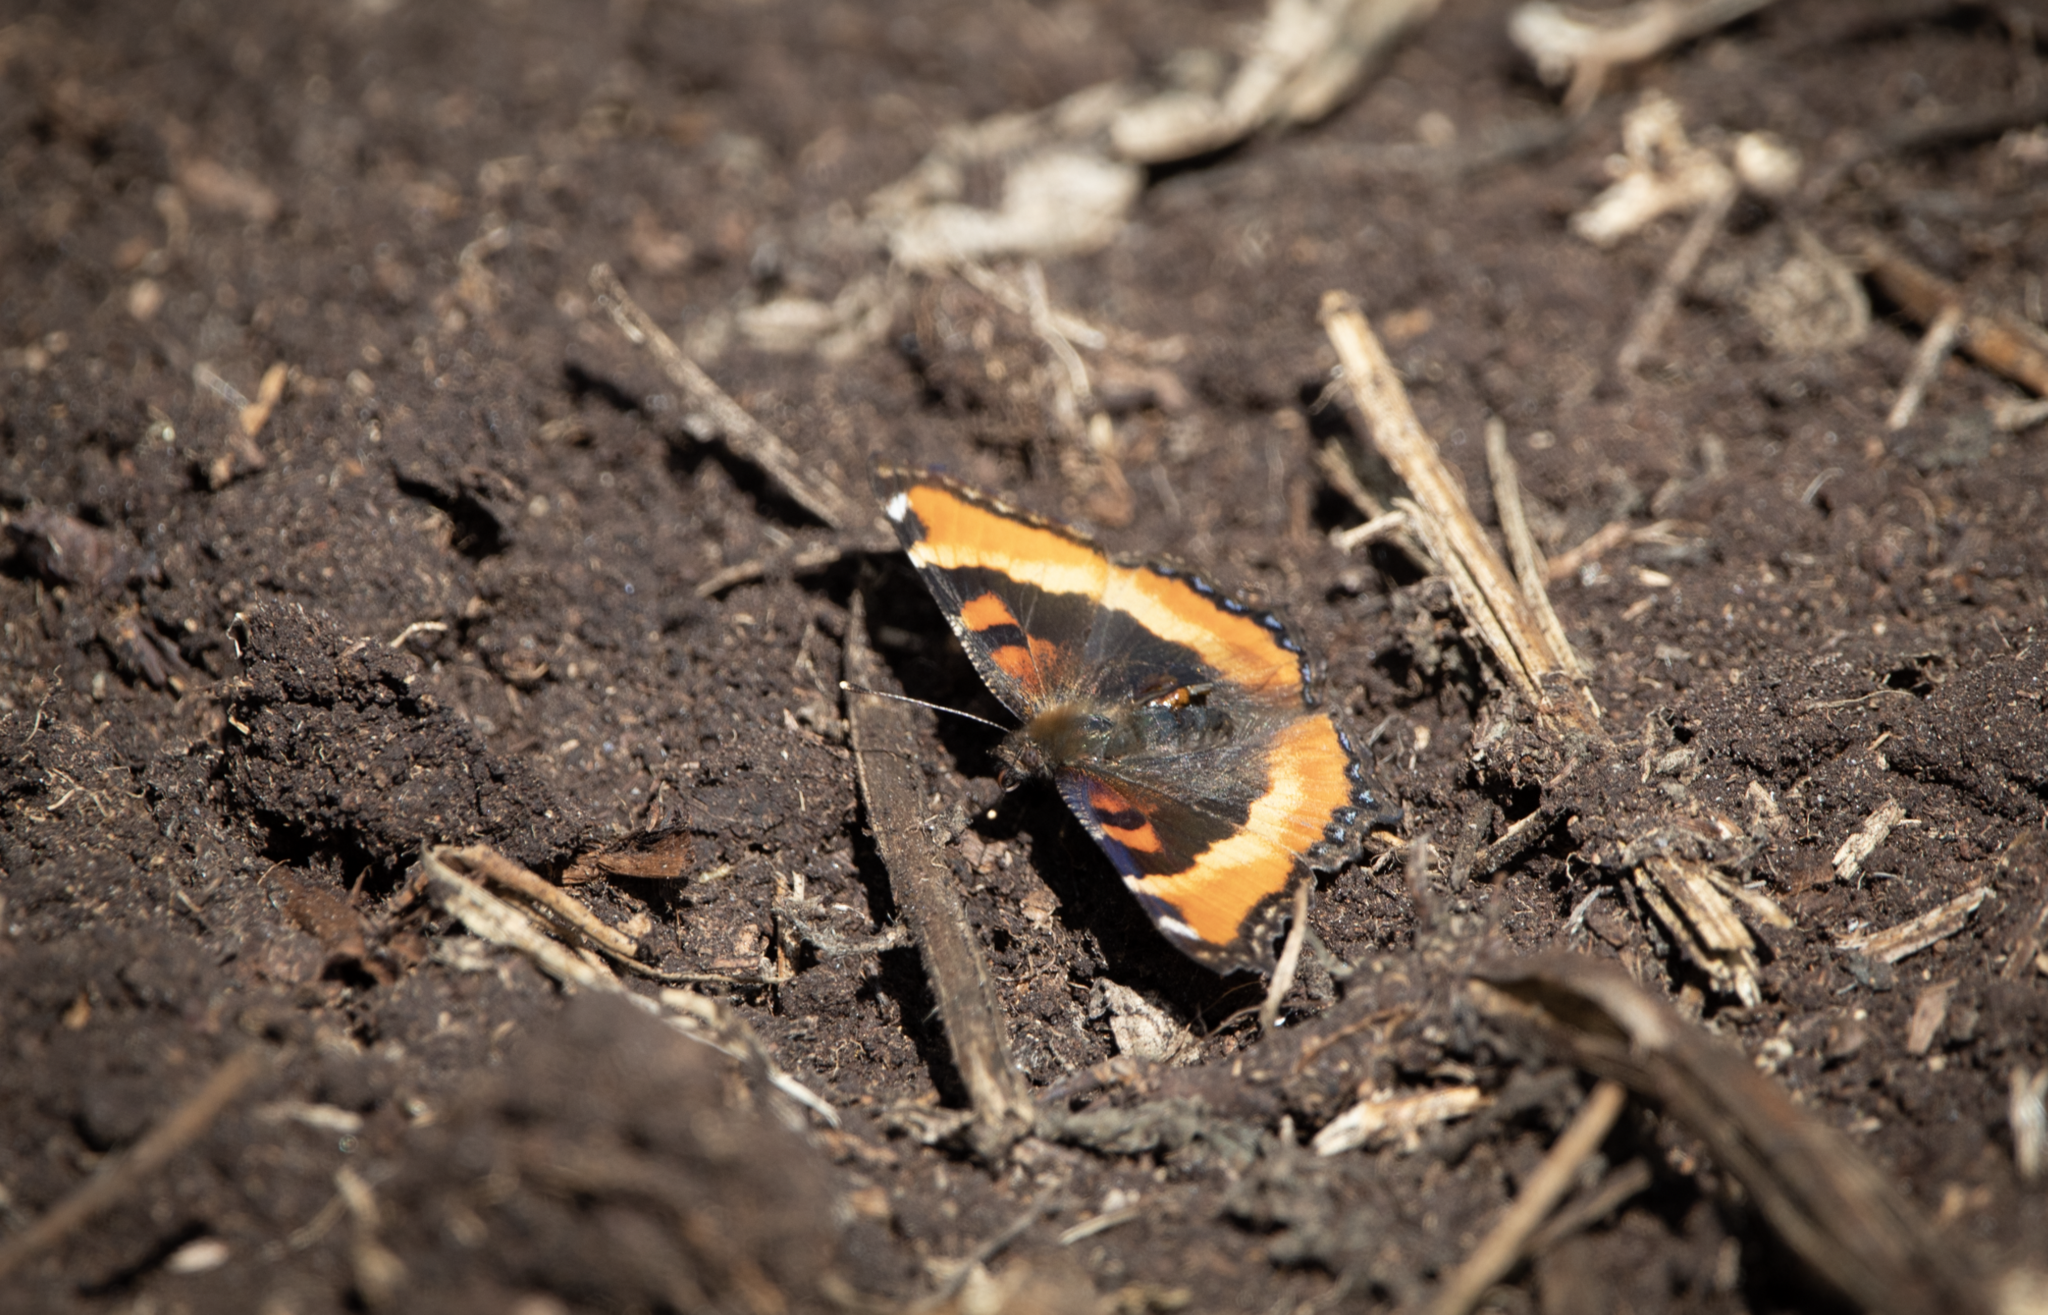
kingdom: Animalia
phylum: Arthropoda
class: Insecta
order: Lepidoptera
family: Nymphalidae
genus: Aglais
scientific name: Aglais milberti
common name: Milbert's tortoiseshell
